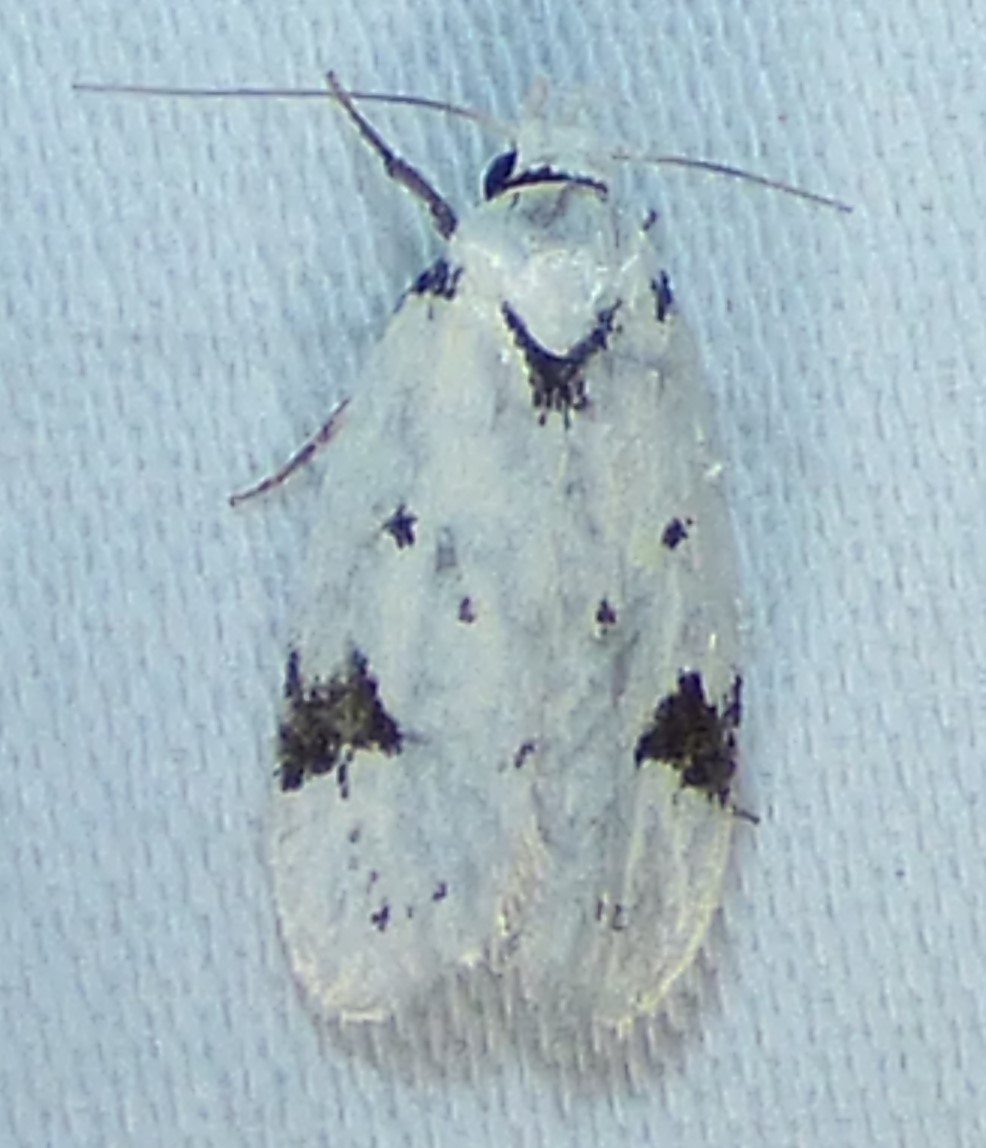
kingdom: Animalia
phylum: Arthropoda
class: Insecta
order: Lepidoptera
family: Oecophoridae
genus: Inga
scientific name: Inga sparsiciliella
